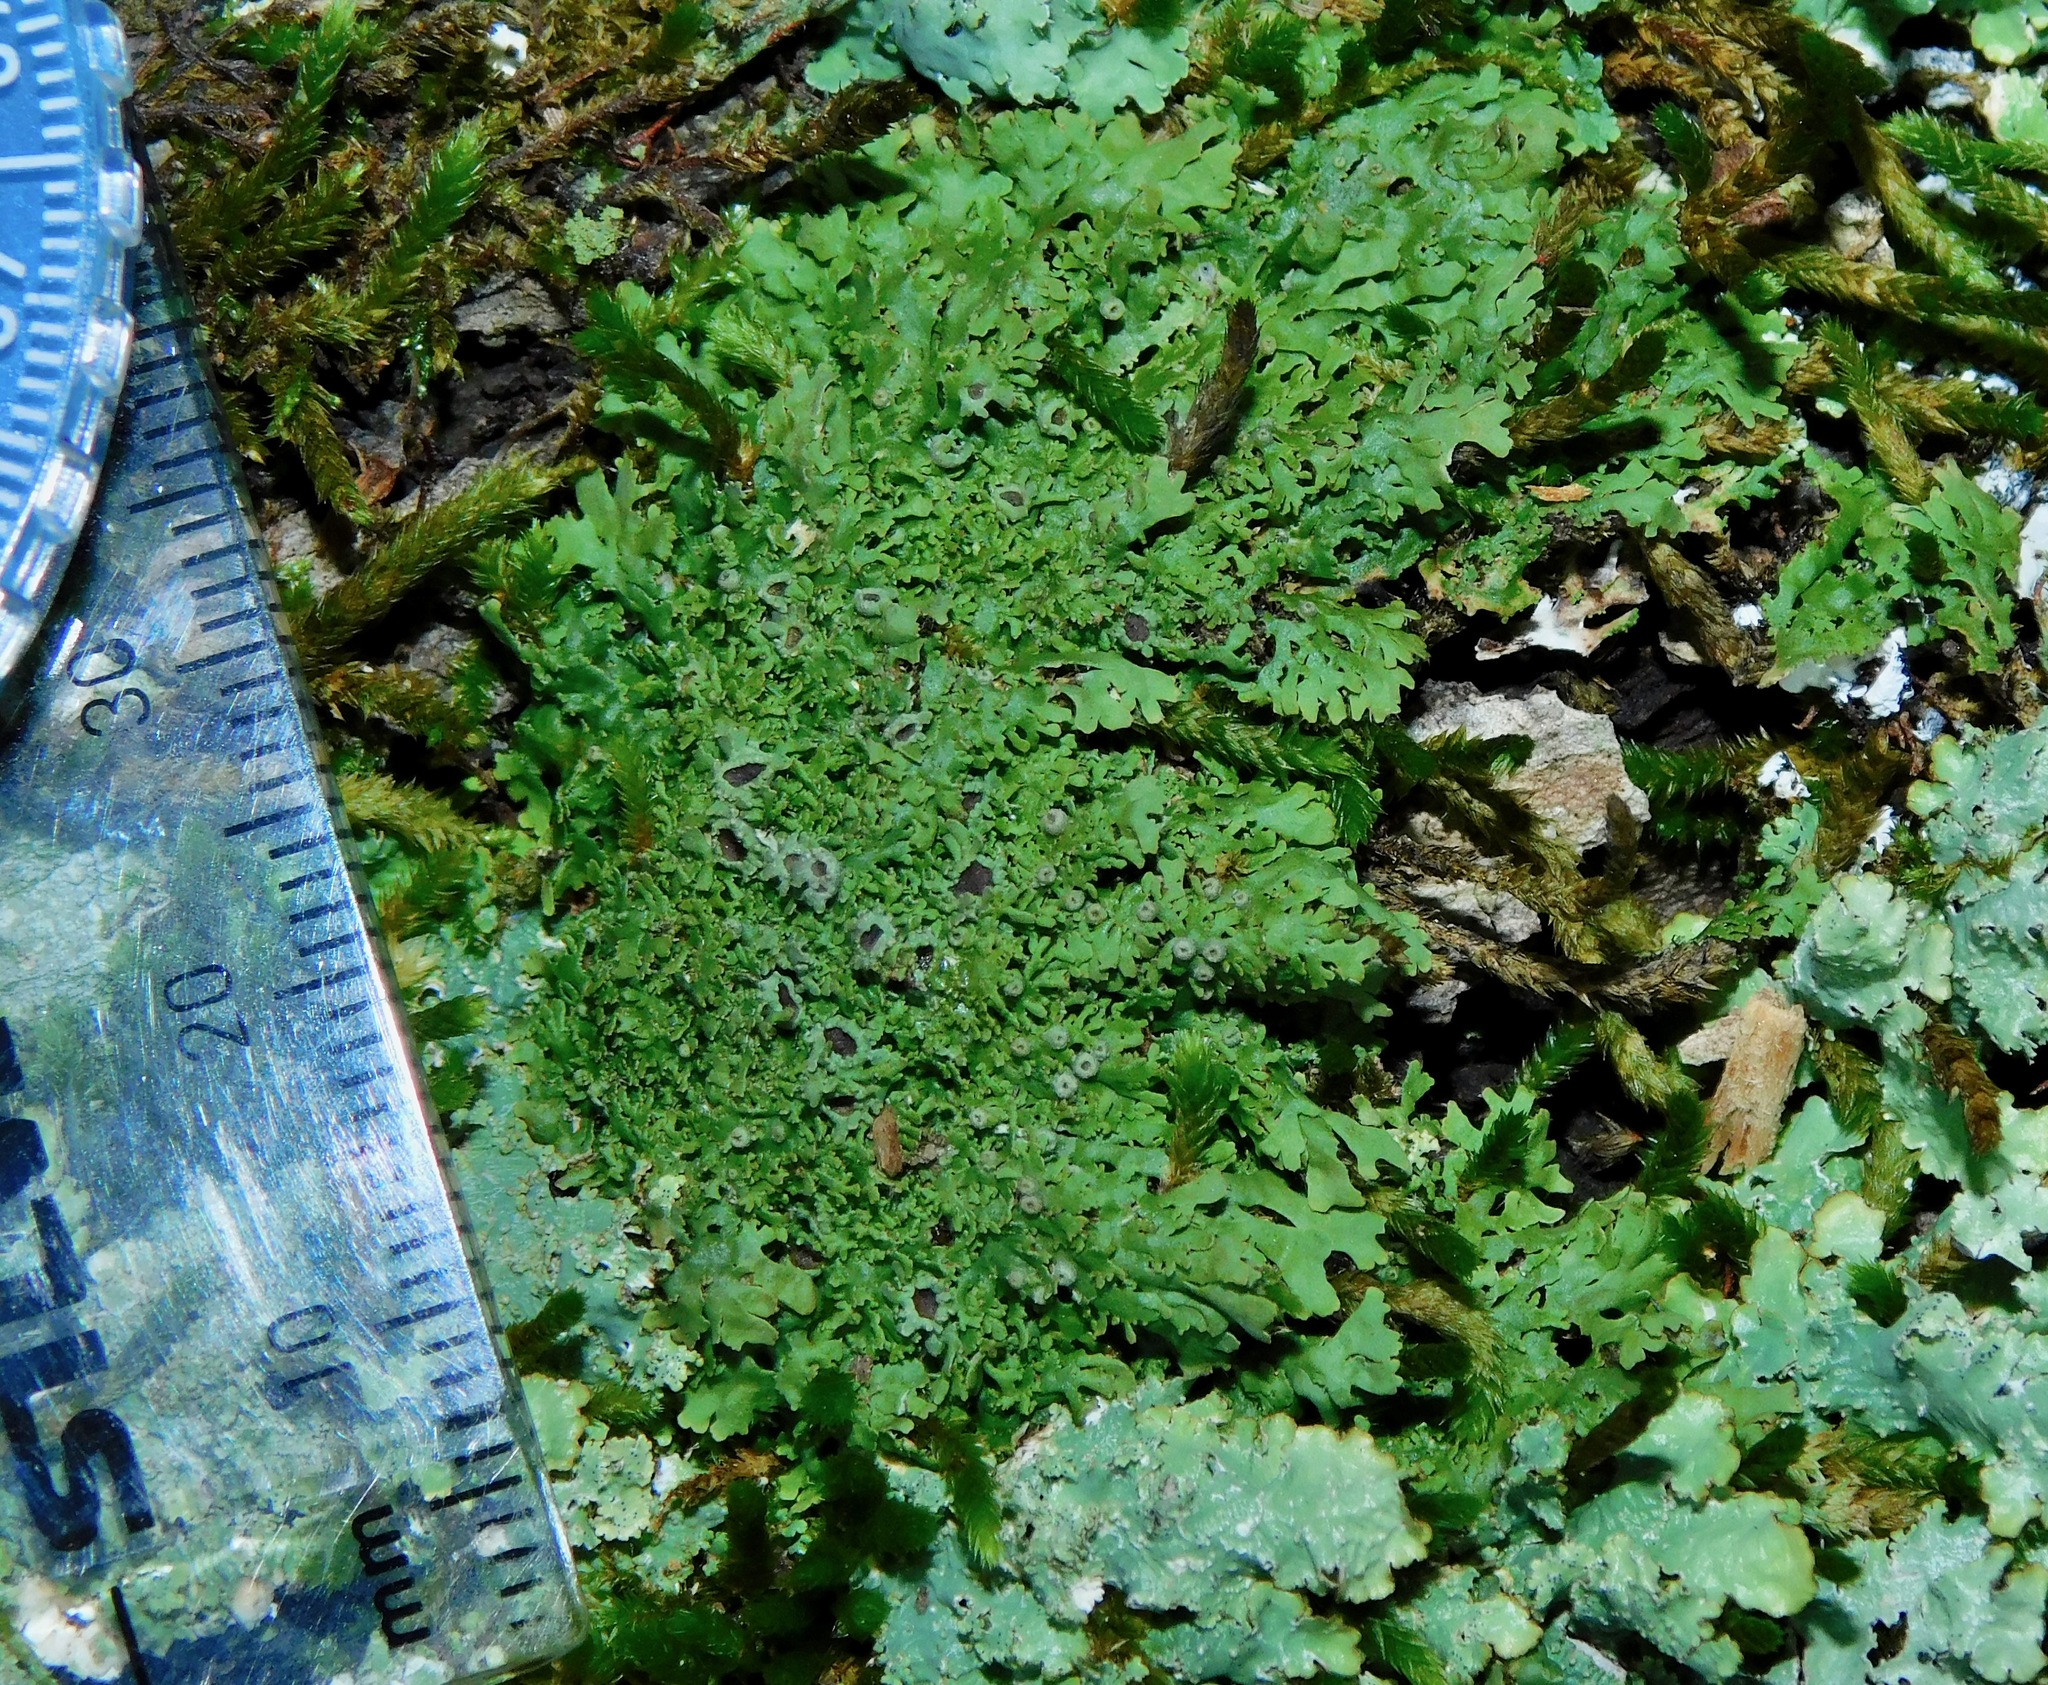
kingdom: Fungi
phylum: Ascomycota
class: Lecanoromycetes
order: Caliciales
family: Physciaceae
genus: Kurokawia
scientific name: Kurokawia palmulata
